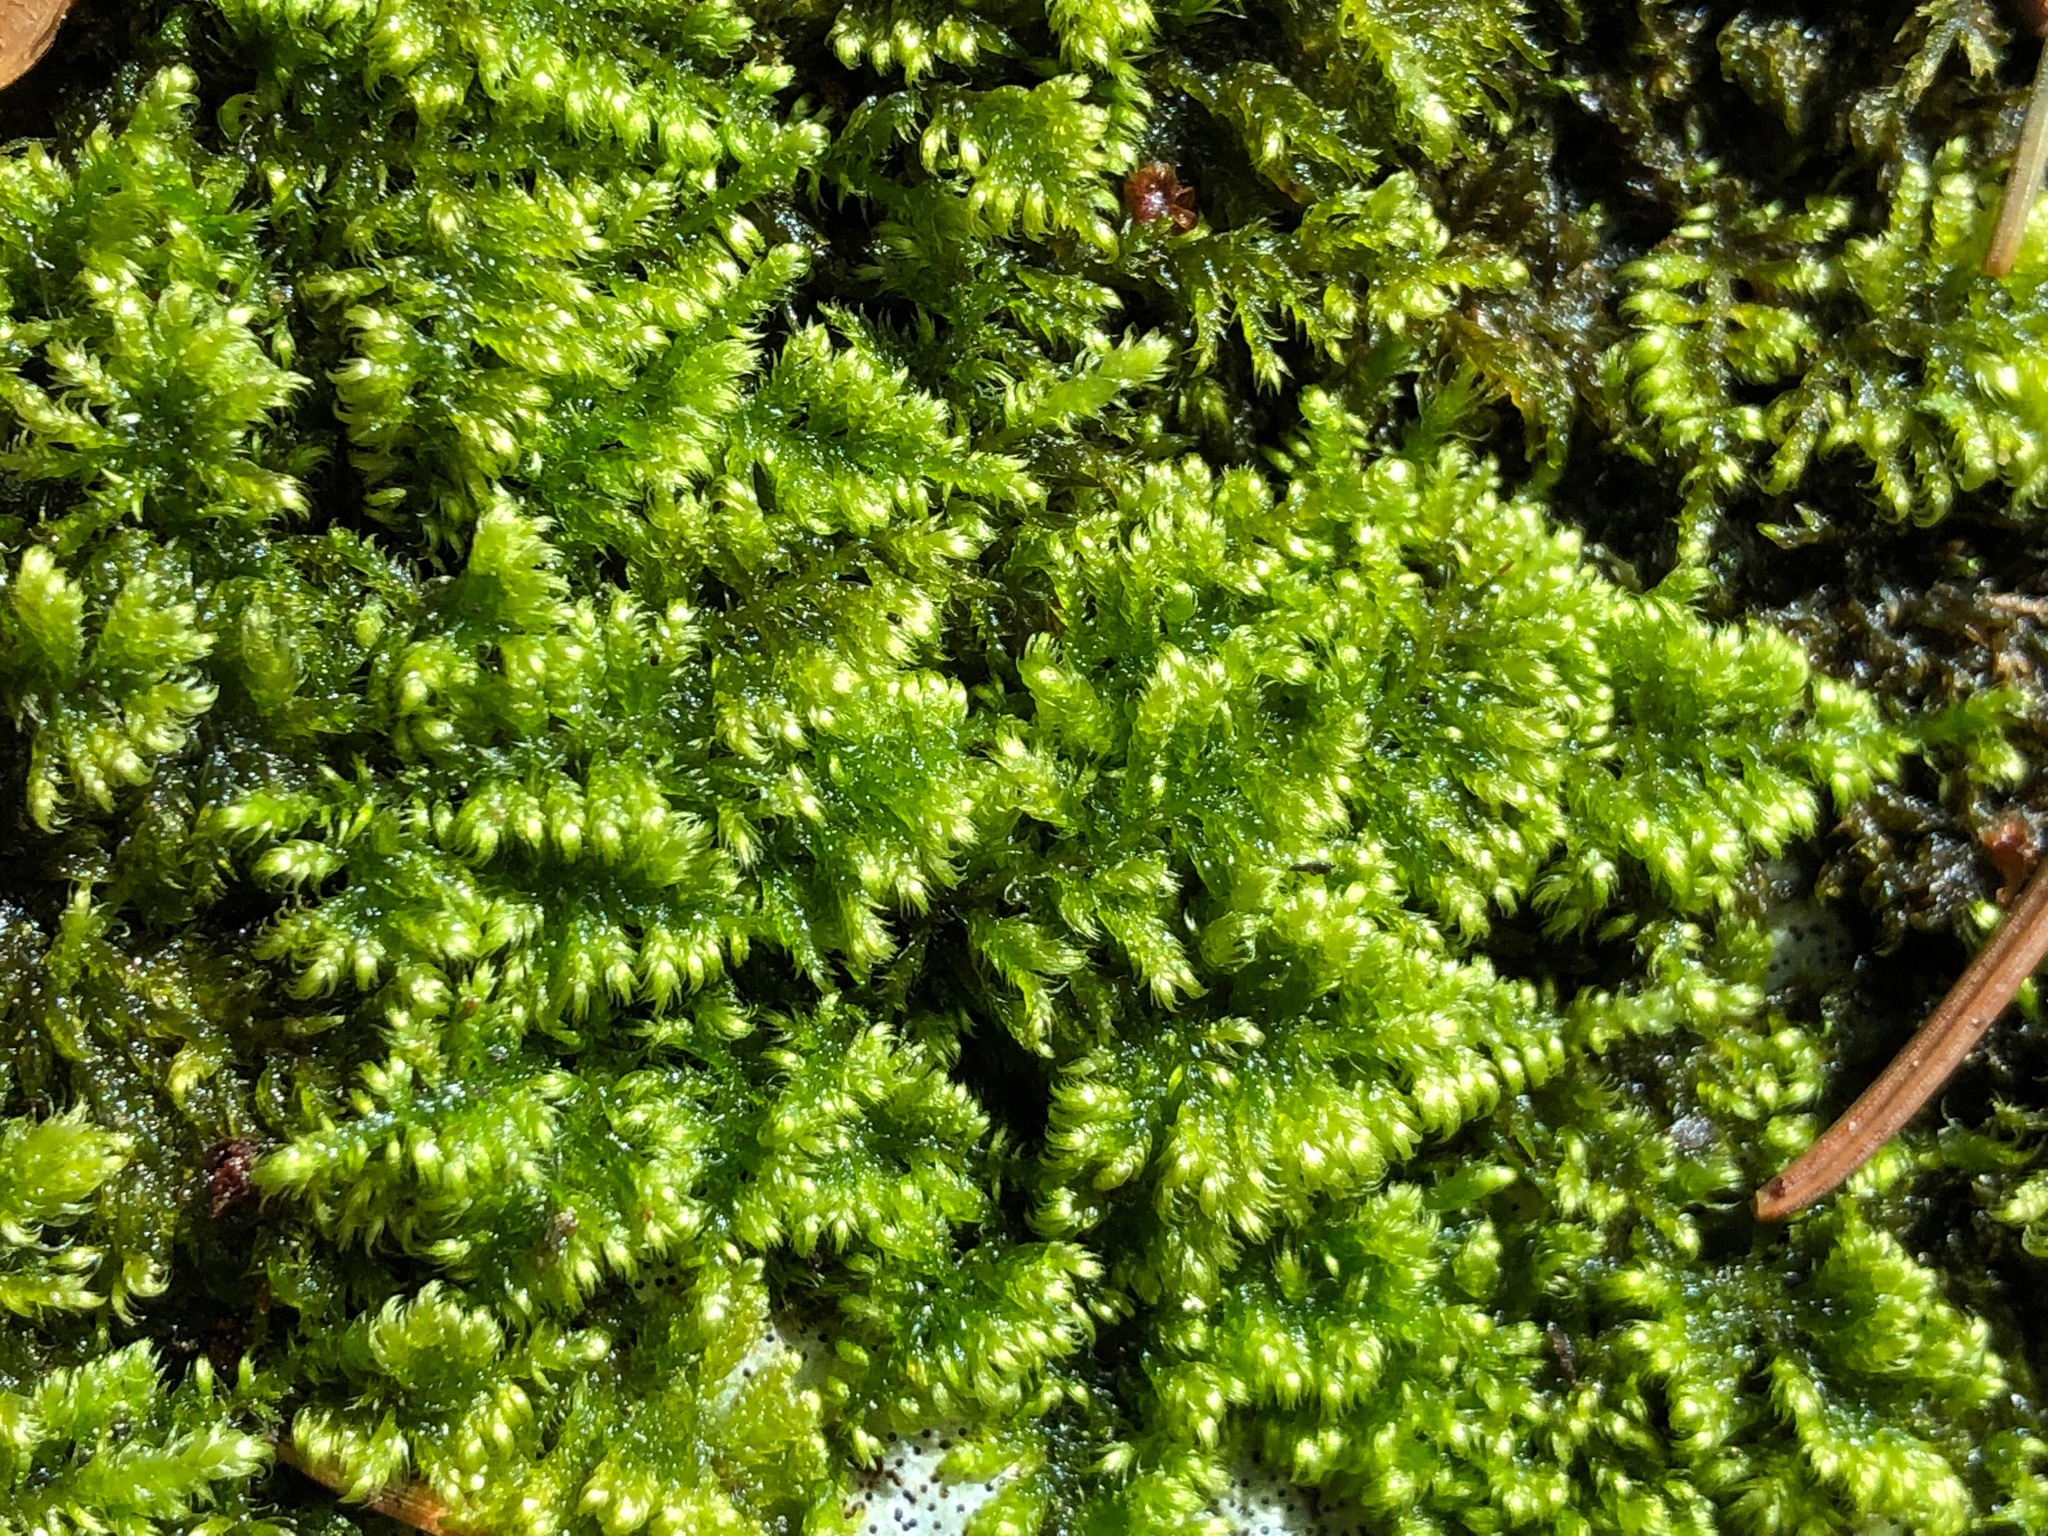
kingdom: Plantae
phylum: Bryophyta
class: Bryopsida
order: Hypnales
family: Myuriaceae
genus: Ctenidium
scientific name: Ctenidium molluscum
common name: Chalk comb-moss
